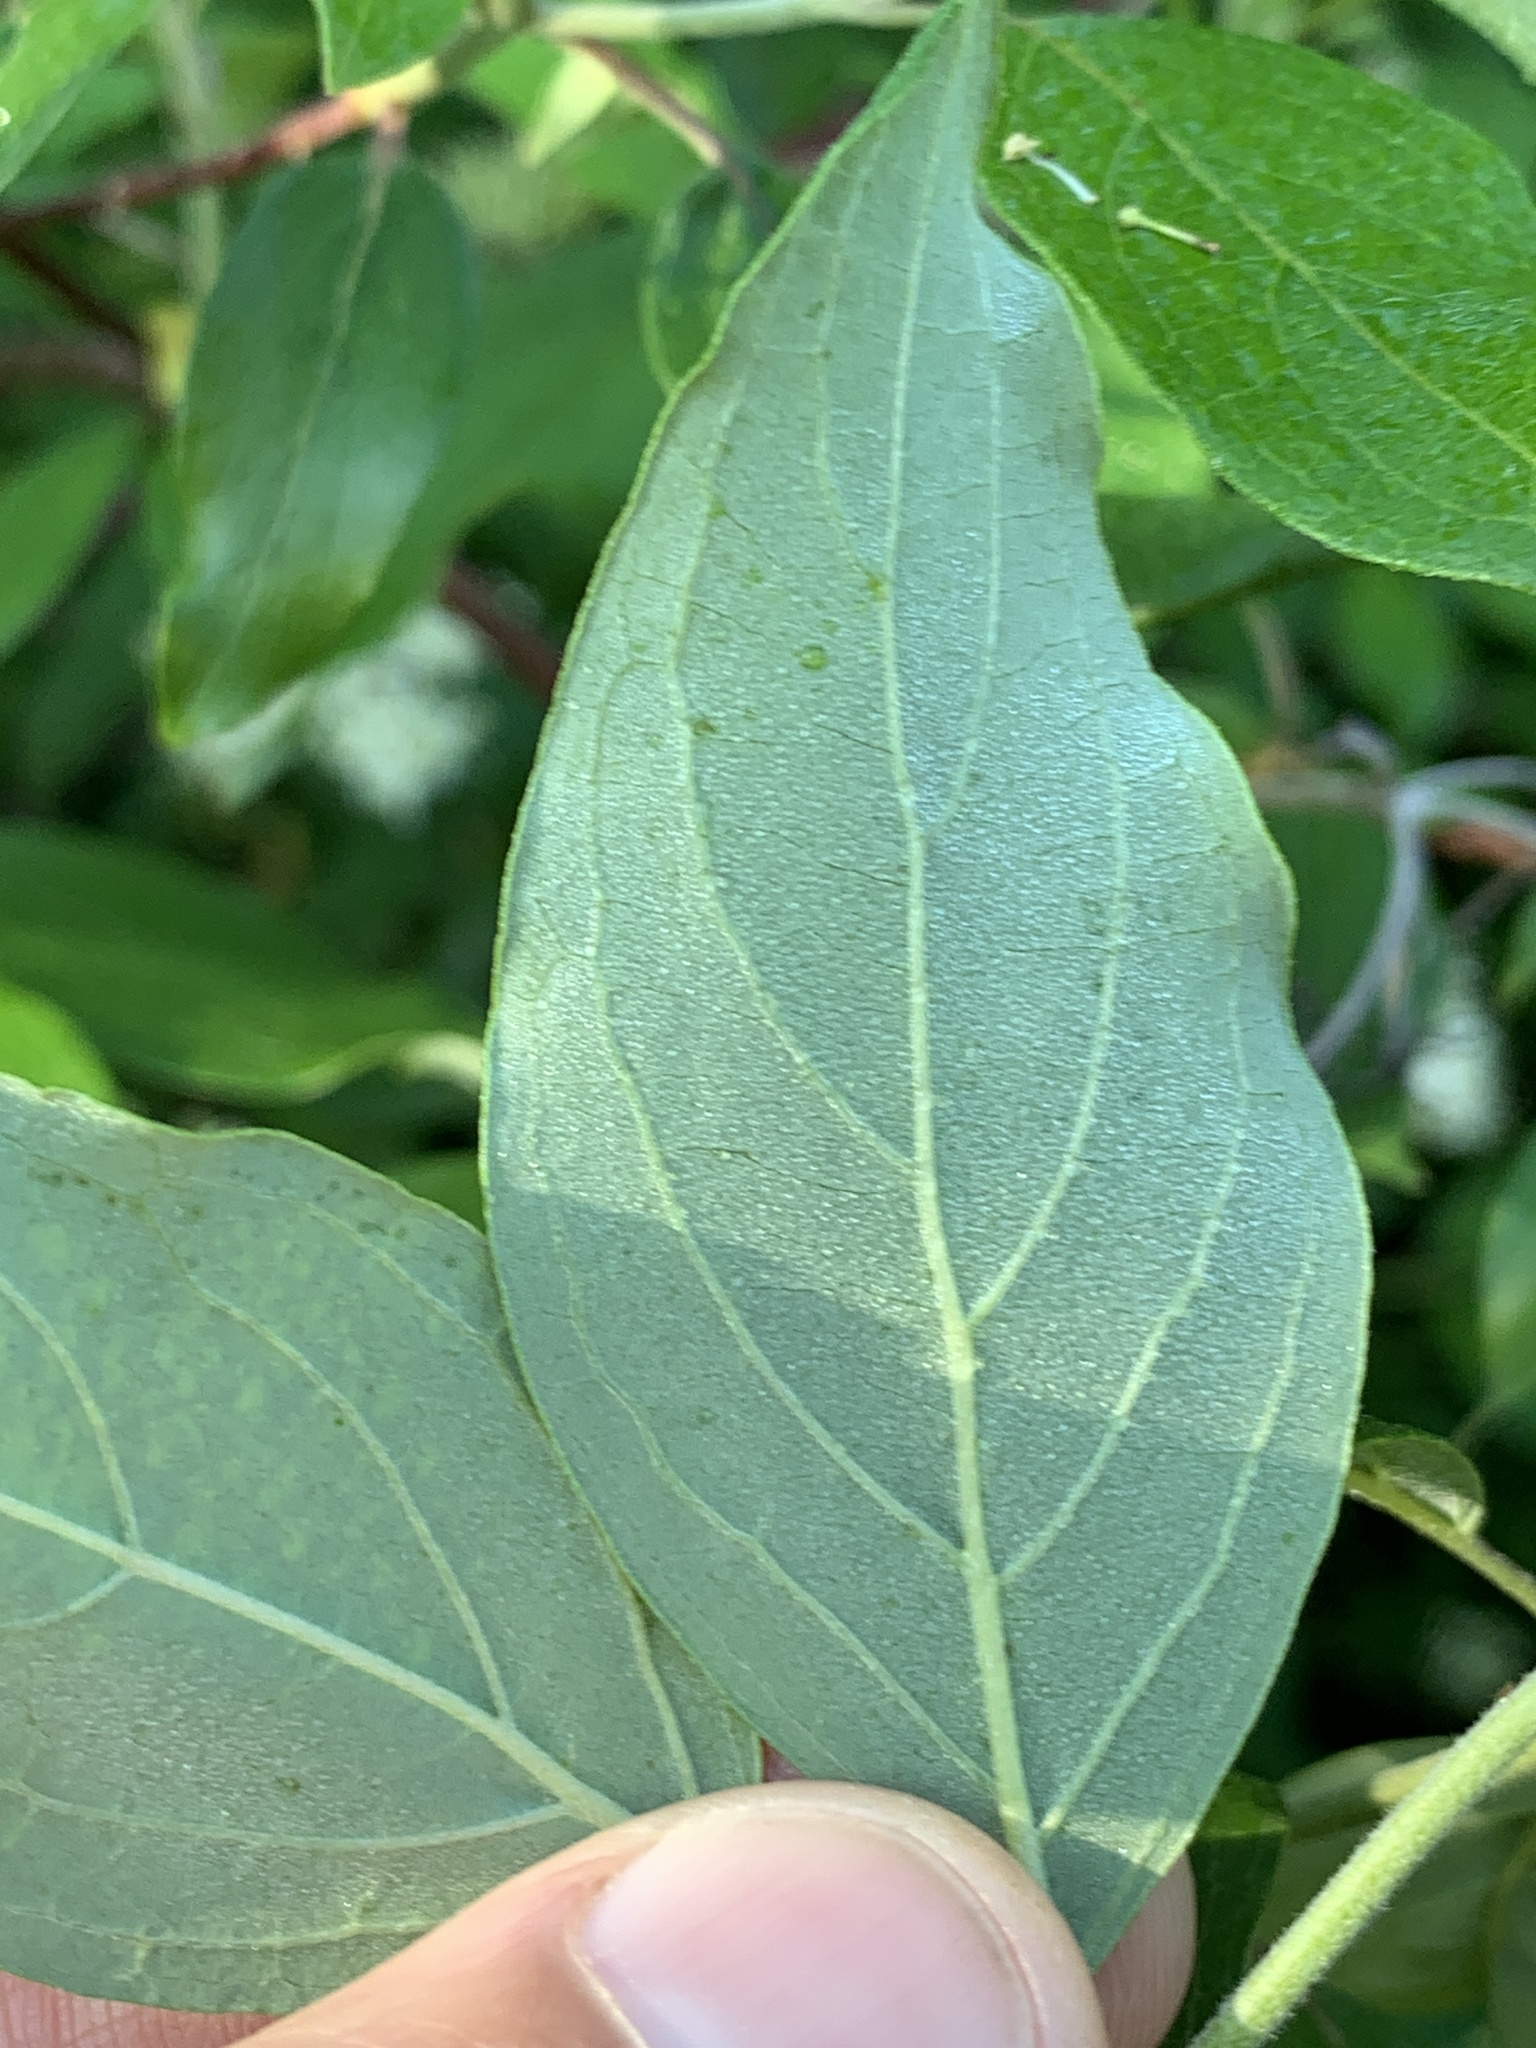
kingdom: Plantae
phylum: Tracheophyta
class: Magnoliopsida
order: Cornales
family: Cornaceae
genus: Cornus
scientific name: Cornus obliqua
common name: Pale dogwood
